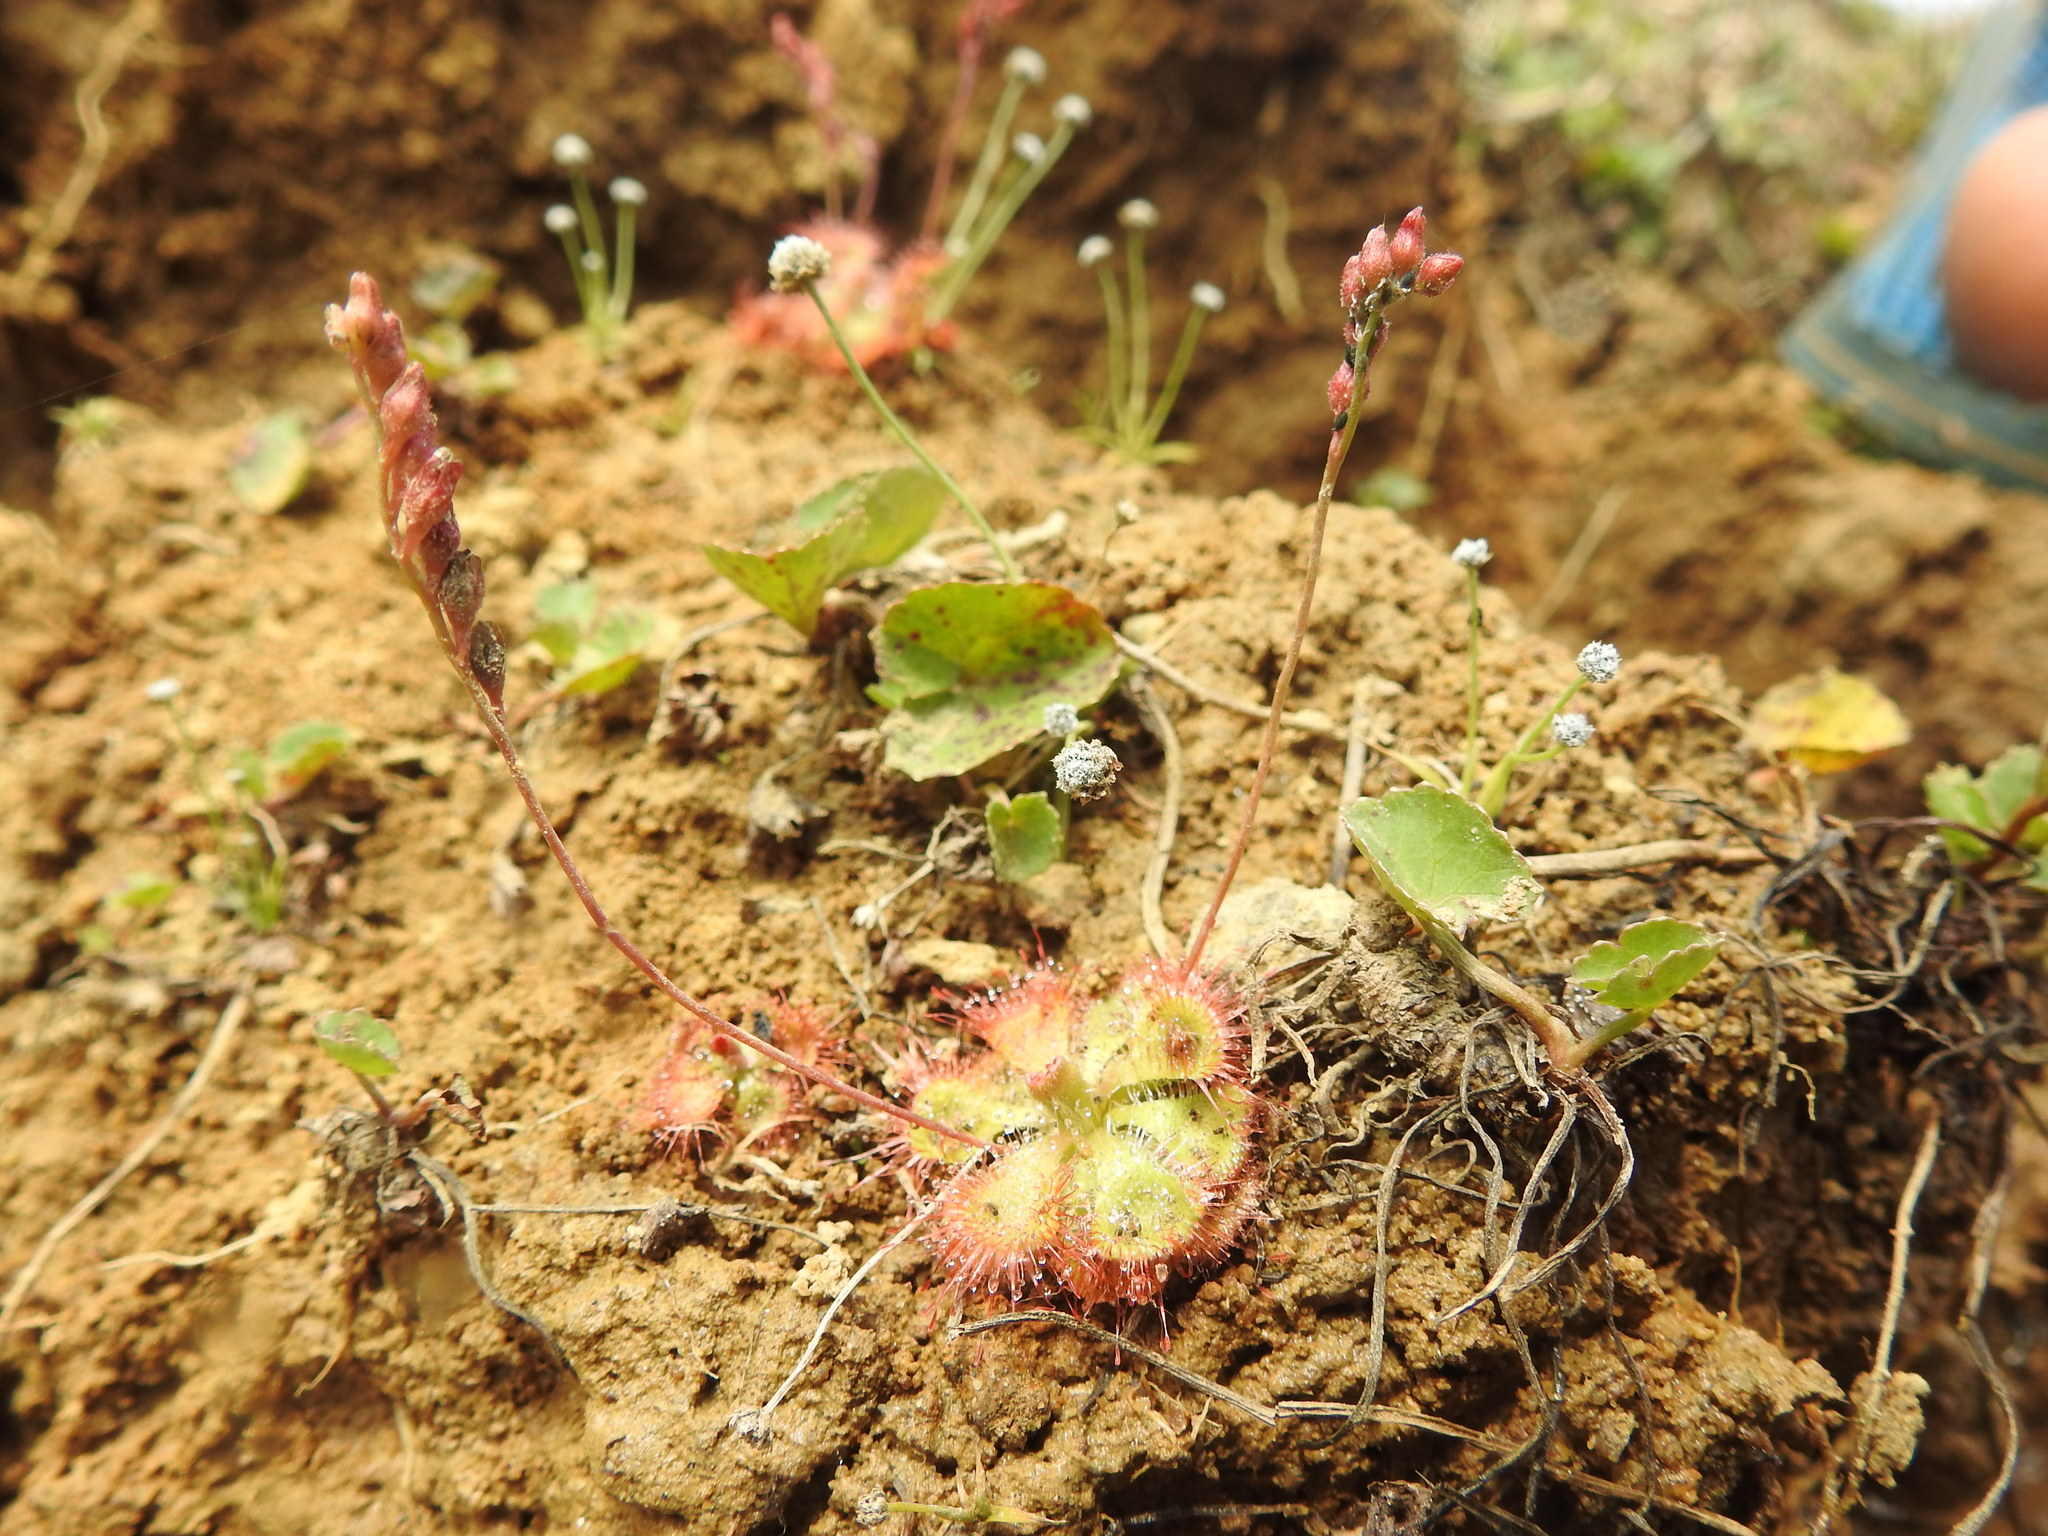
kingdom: Plantae
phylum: Tracheophyta
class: Magnoliopsida
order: Caryophyllales
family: Droseraceae
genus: Drosera
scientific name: Drosera spatulata
